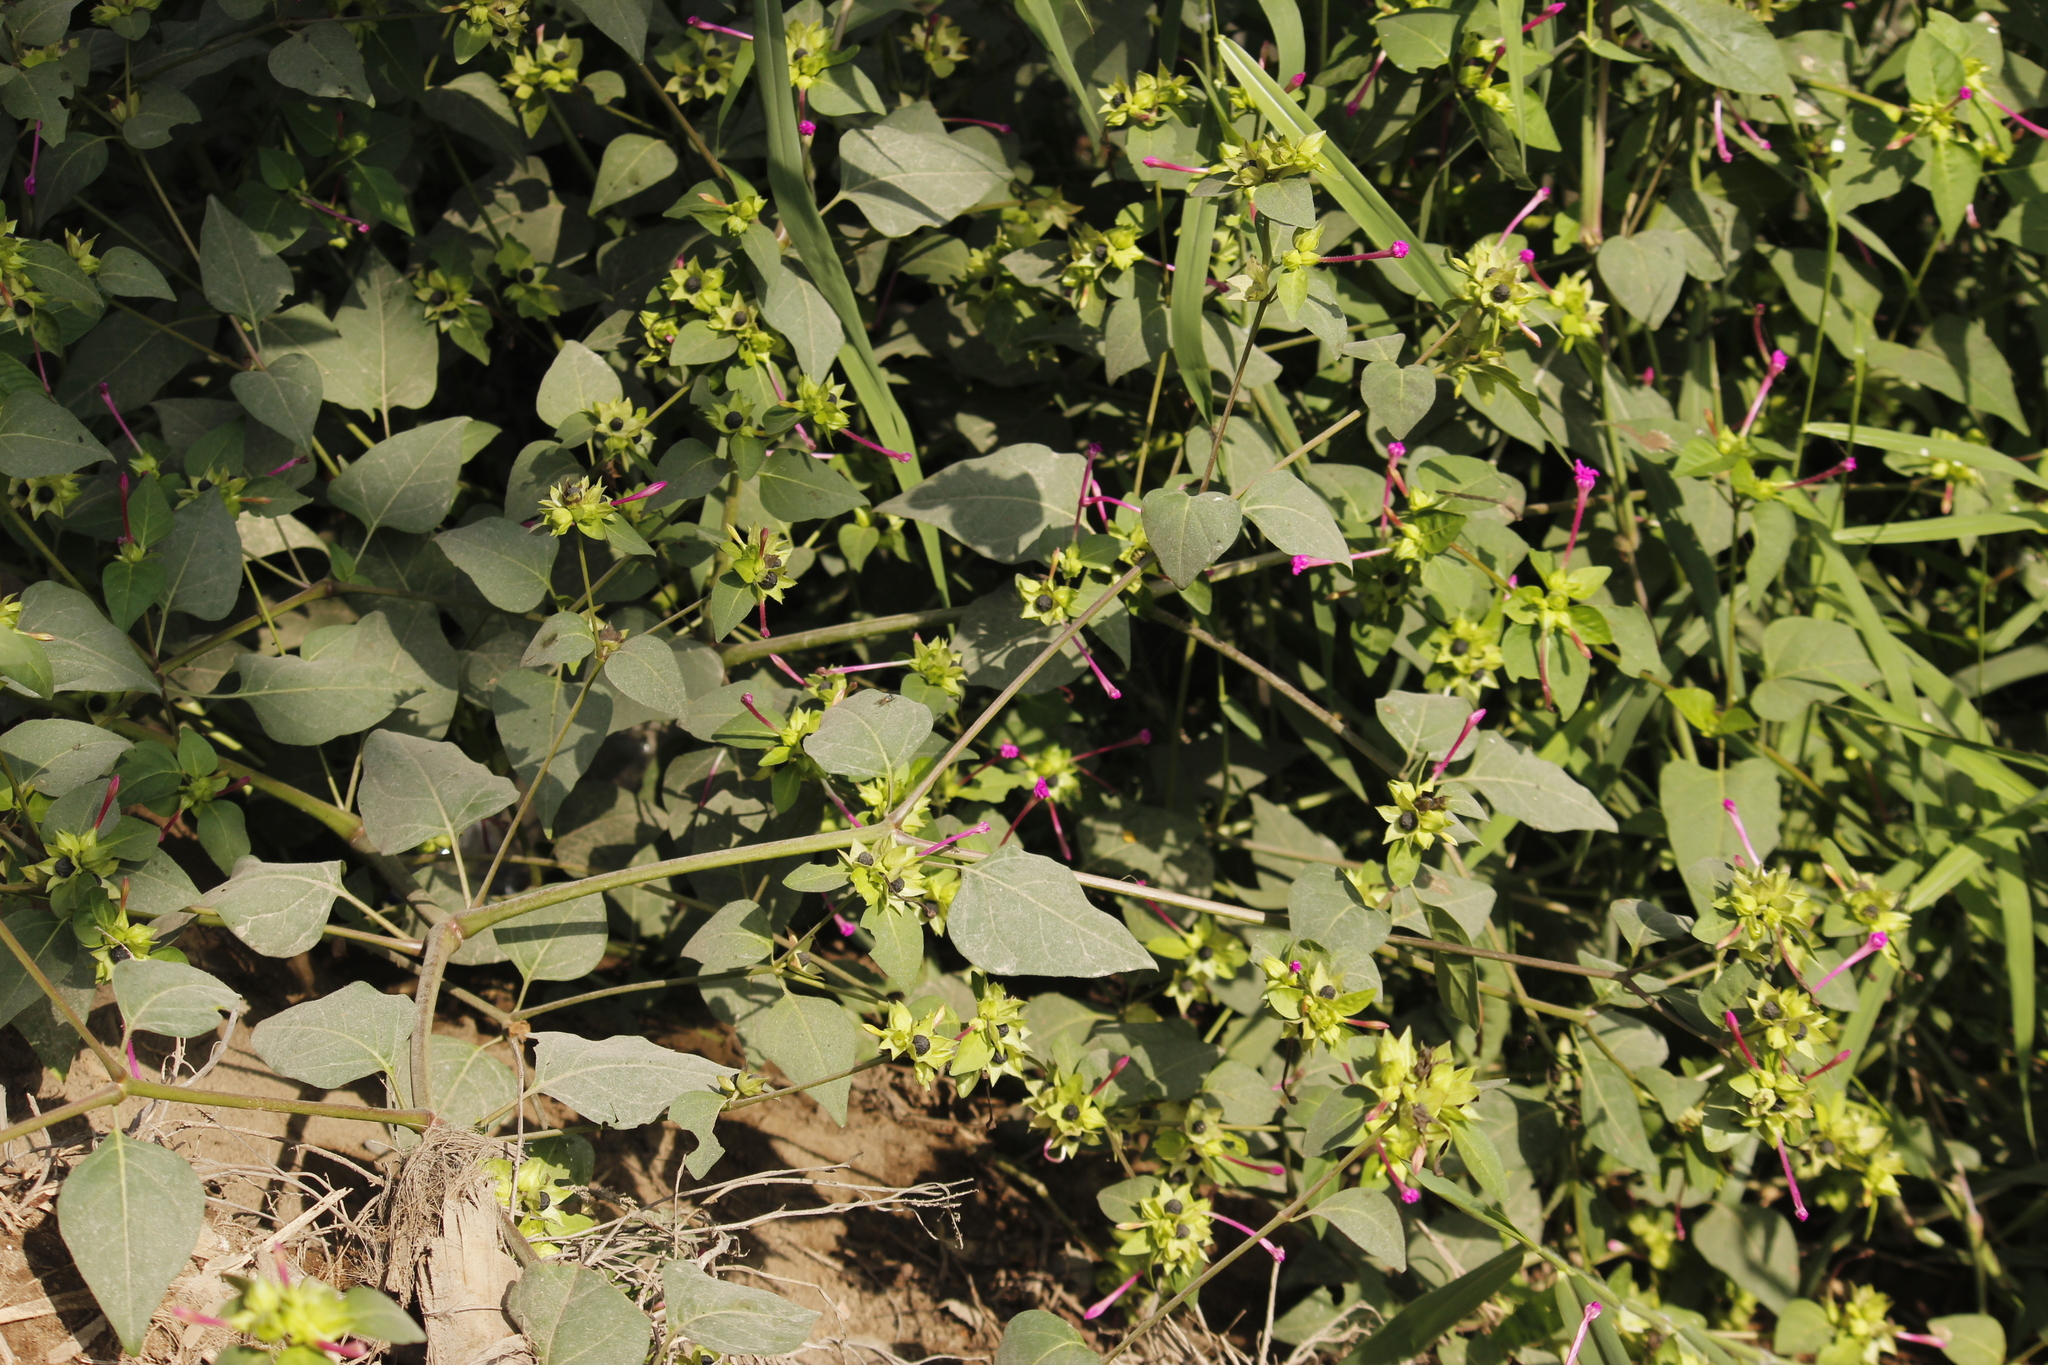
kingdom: Plantae
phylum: Tracheophyta
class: Magnoliopsida
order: Caryophyllales
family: Nyctaginaceae
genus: Mirabilis
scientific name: Mirabilis jalapa
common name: Marvel-of-peru
